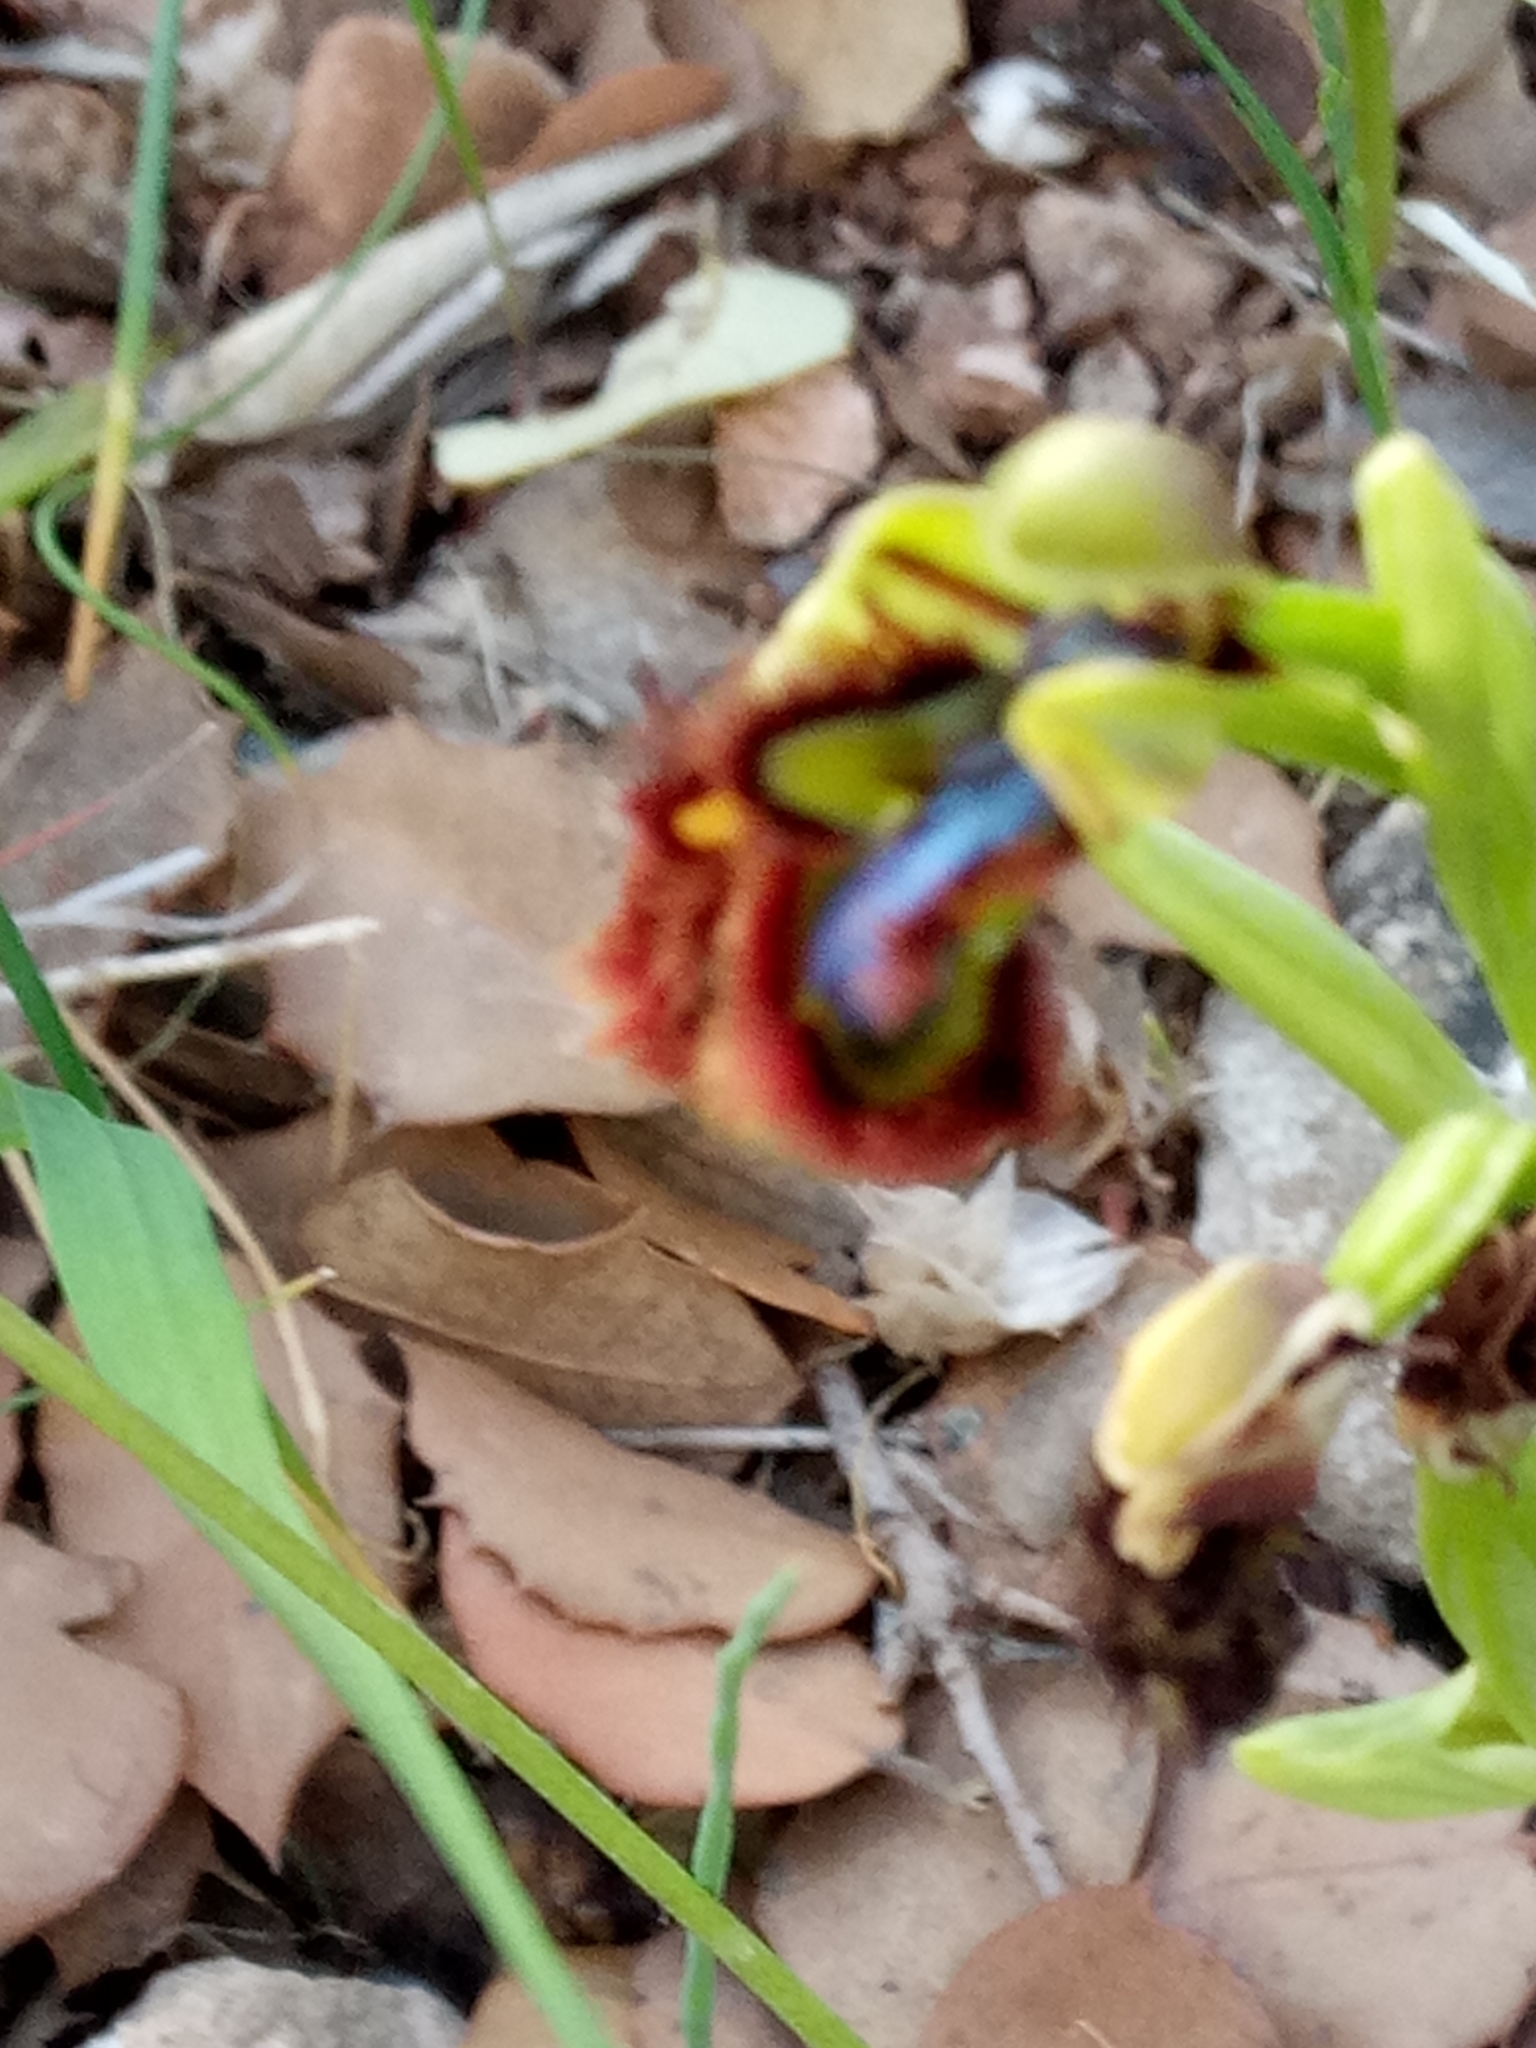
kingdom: Plantae
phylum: Tracheophyta
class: Liliopsida
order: Asparagales
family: Orchidaceae
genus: Ophrys
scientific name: Ophrys speculum
